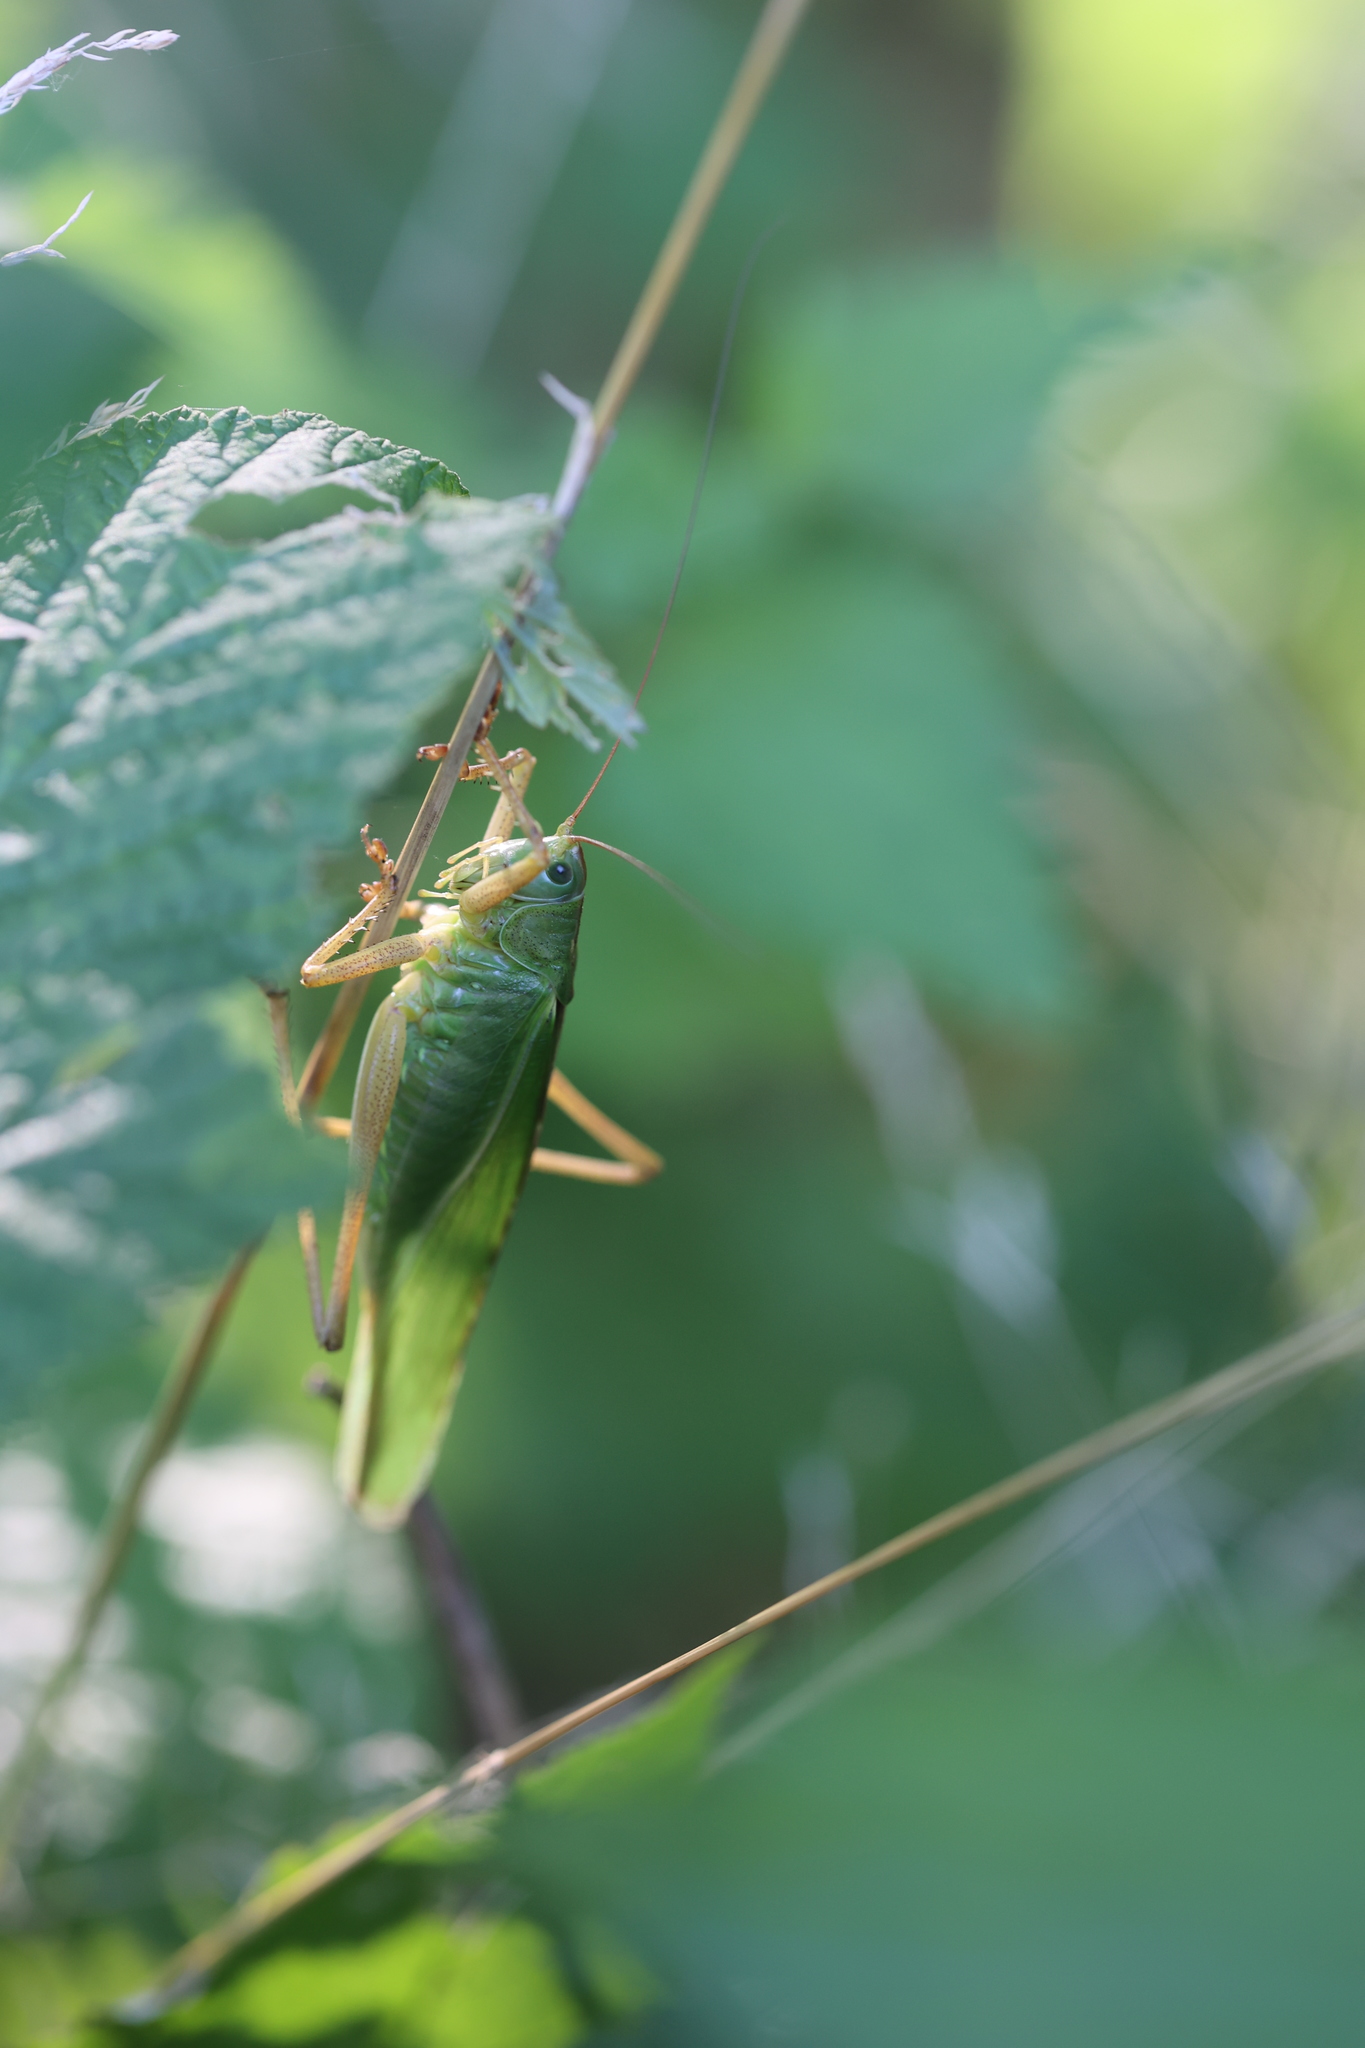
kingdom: Animalia
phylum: Arthropoda
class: Insecta
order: Orthoptera
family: Tettigoniidae
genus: Tettigonia
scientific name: Tettigonia viridissima
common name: Great green bush-cricket
